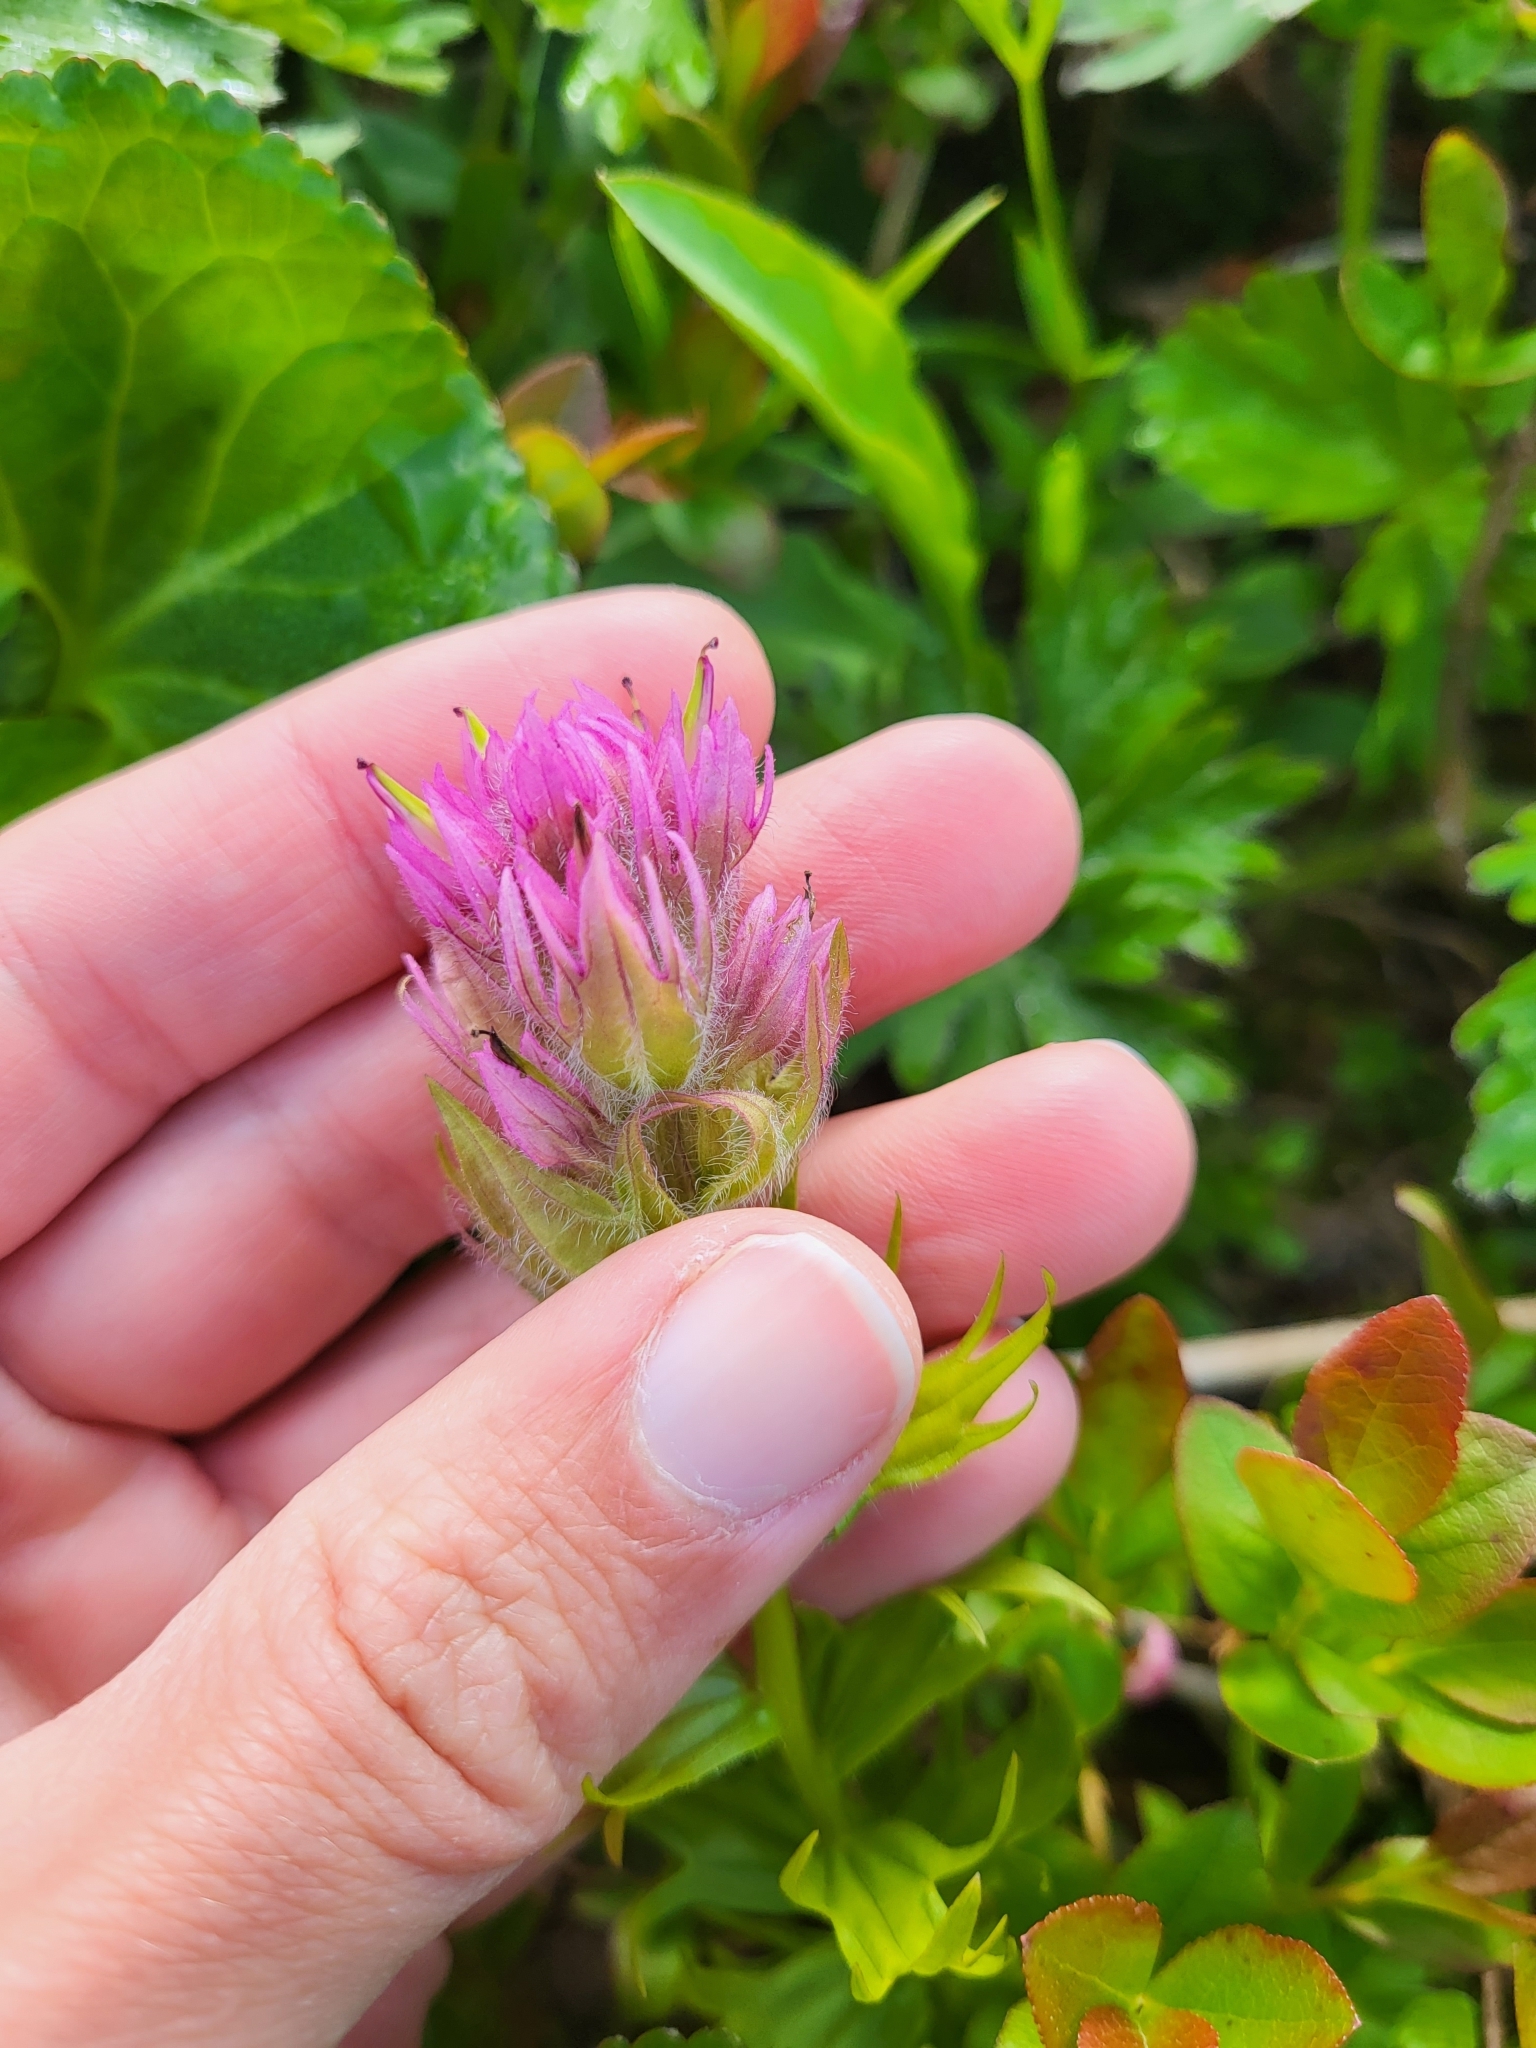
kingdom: Plantae
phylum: Tracheophyta
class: Magnoliopsida
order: Lamiales
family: Orobanchaceae
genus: Castilleja
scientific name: Castilleja parviflora
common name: Mountain paintbrush
